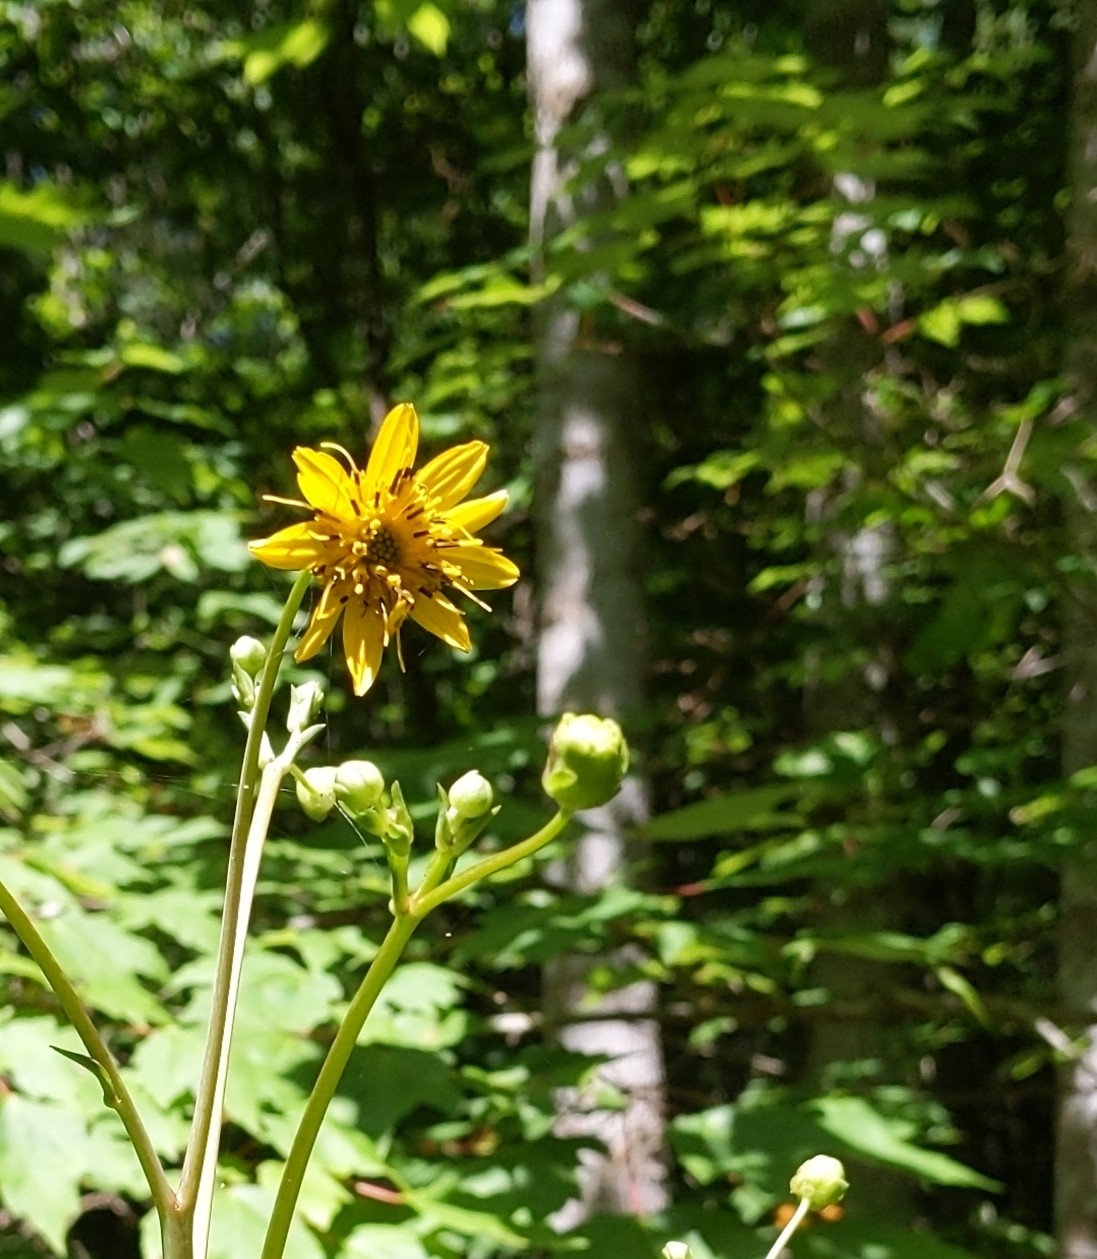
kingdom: Plantae
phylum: Tracheophyta
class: Magnoliopsida
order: Asterales
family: Asteraceae
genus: Silphium
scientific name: Silphium compositum
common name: Lesser basal-leaf rosinweed
